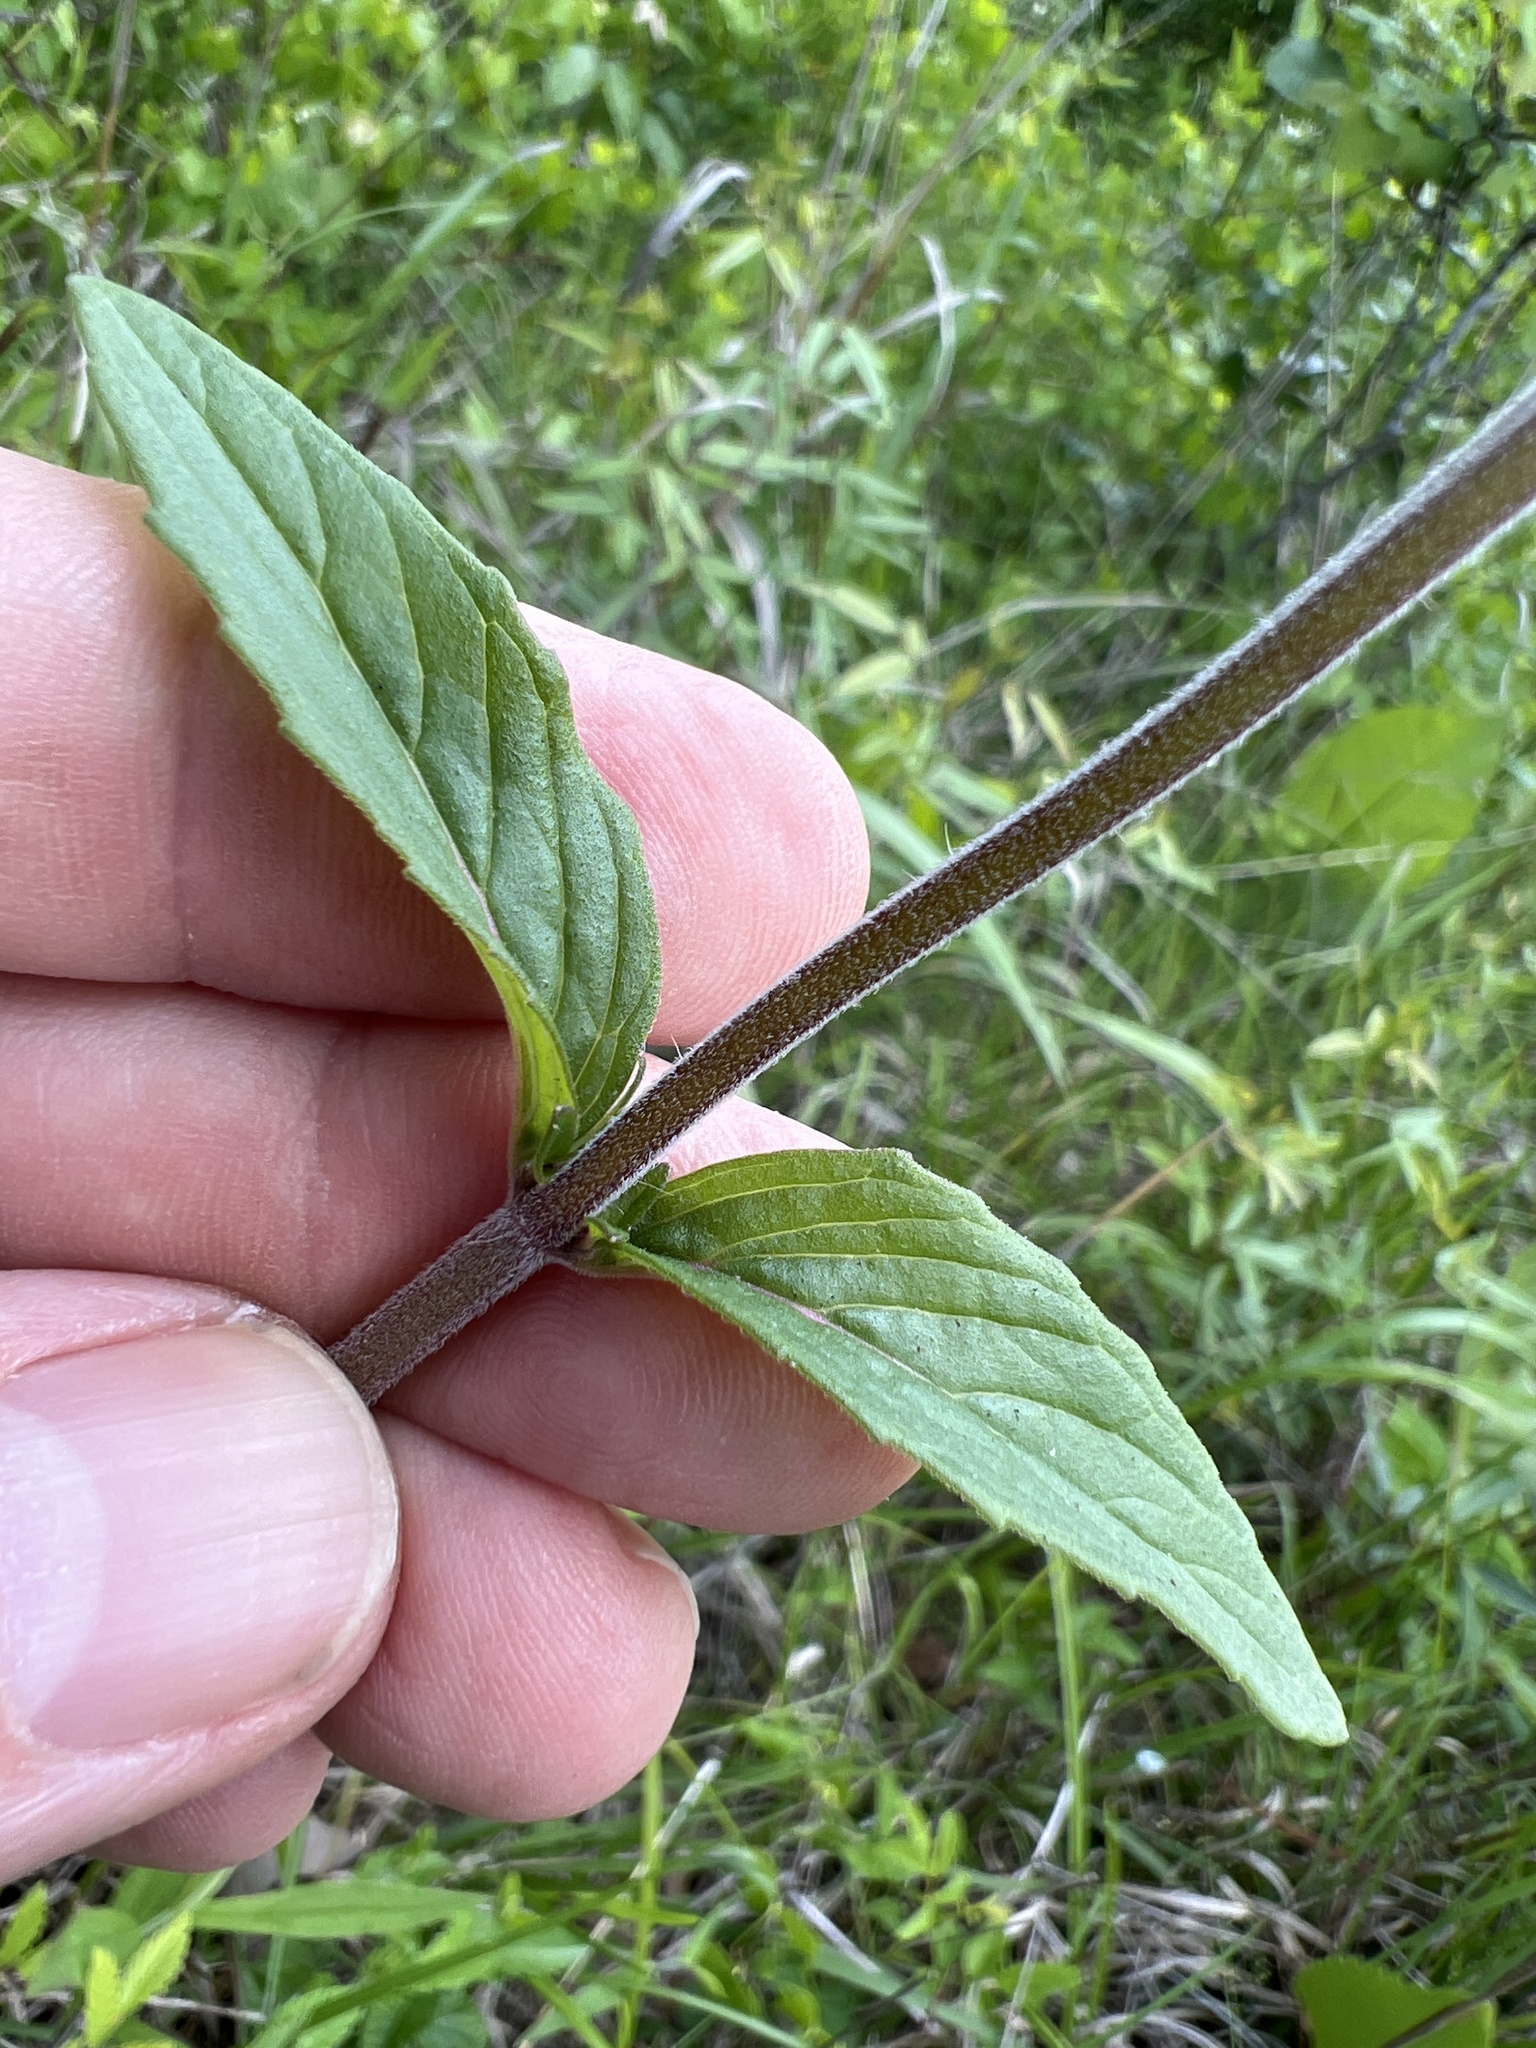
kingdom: Plantae
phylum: Tracheophyta
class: Magnoliopsida
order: Lamiales
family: Lamiaceae
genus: Blephilia
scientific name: Blephilia ciliata
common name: Downy blephilia
